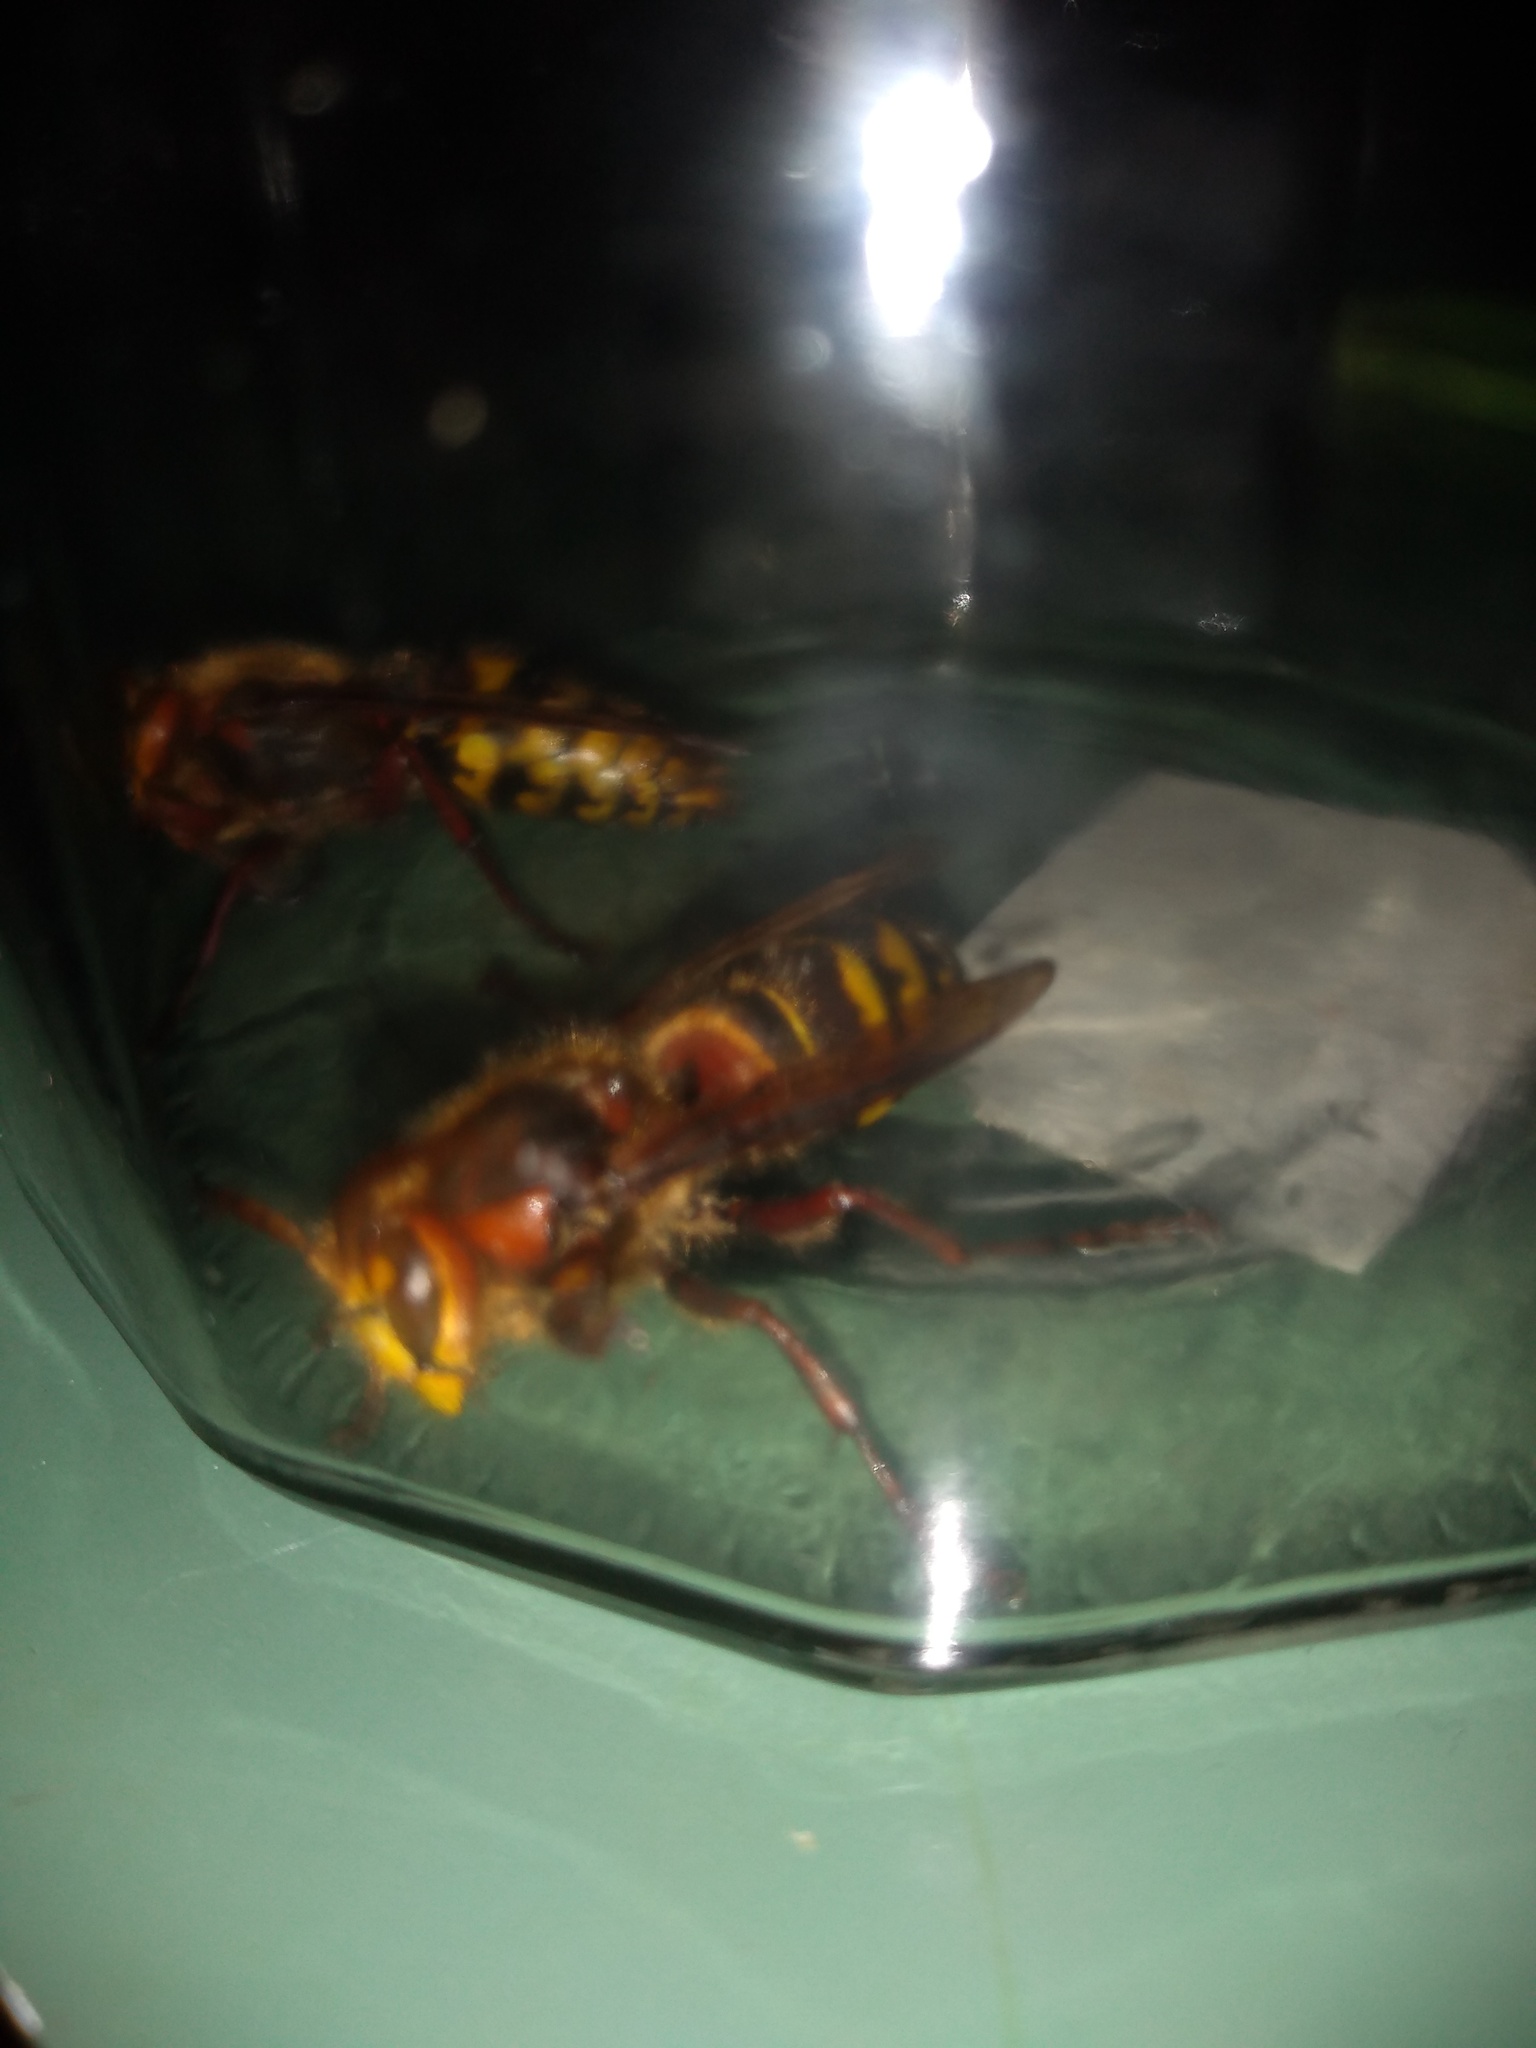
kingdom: Animalia
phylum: Arthropoda
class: Insecta
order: Hymenoptera
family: Vespidae
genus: Vespa
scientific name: Vespa crabro
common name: Hornet
